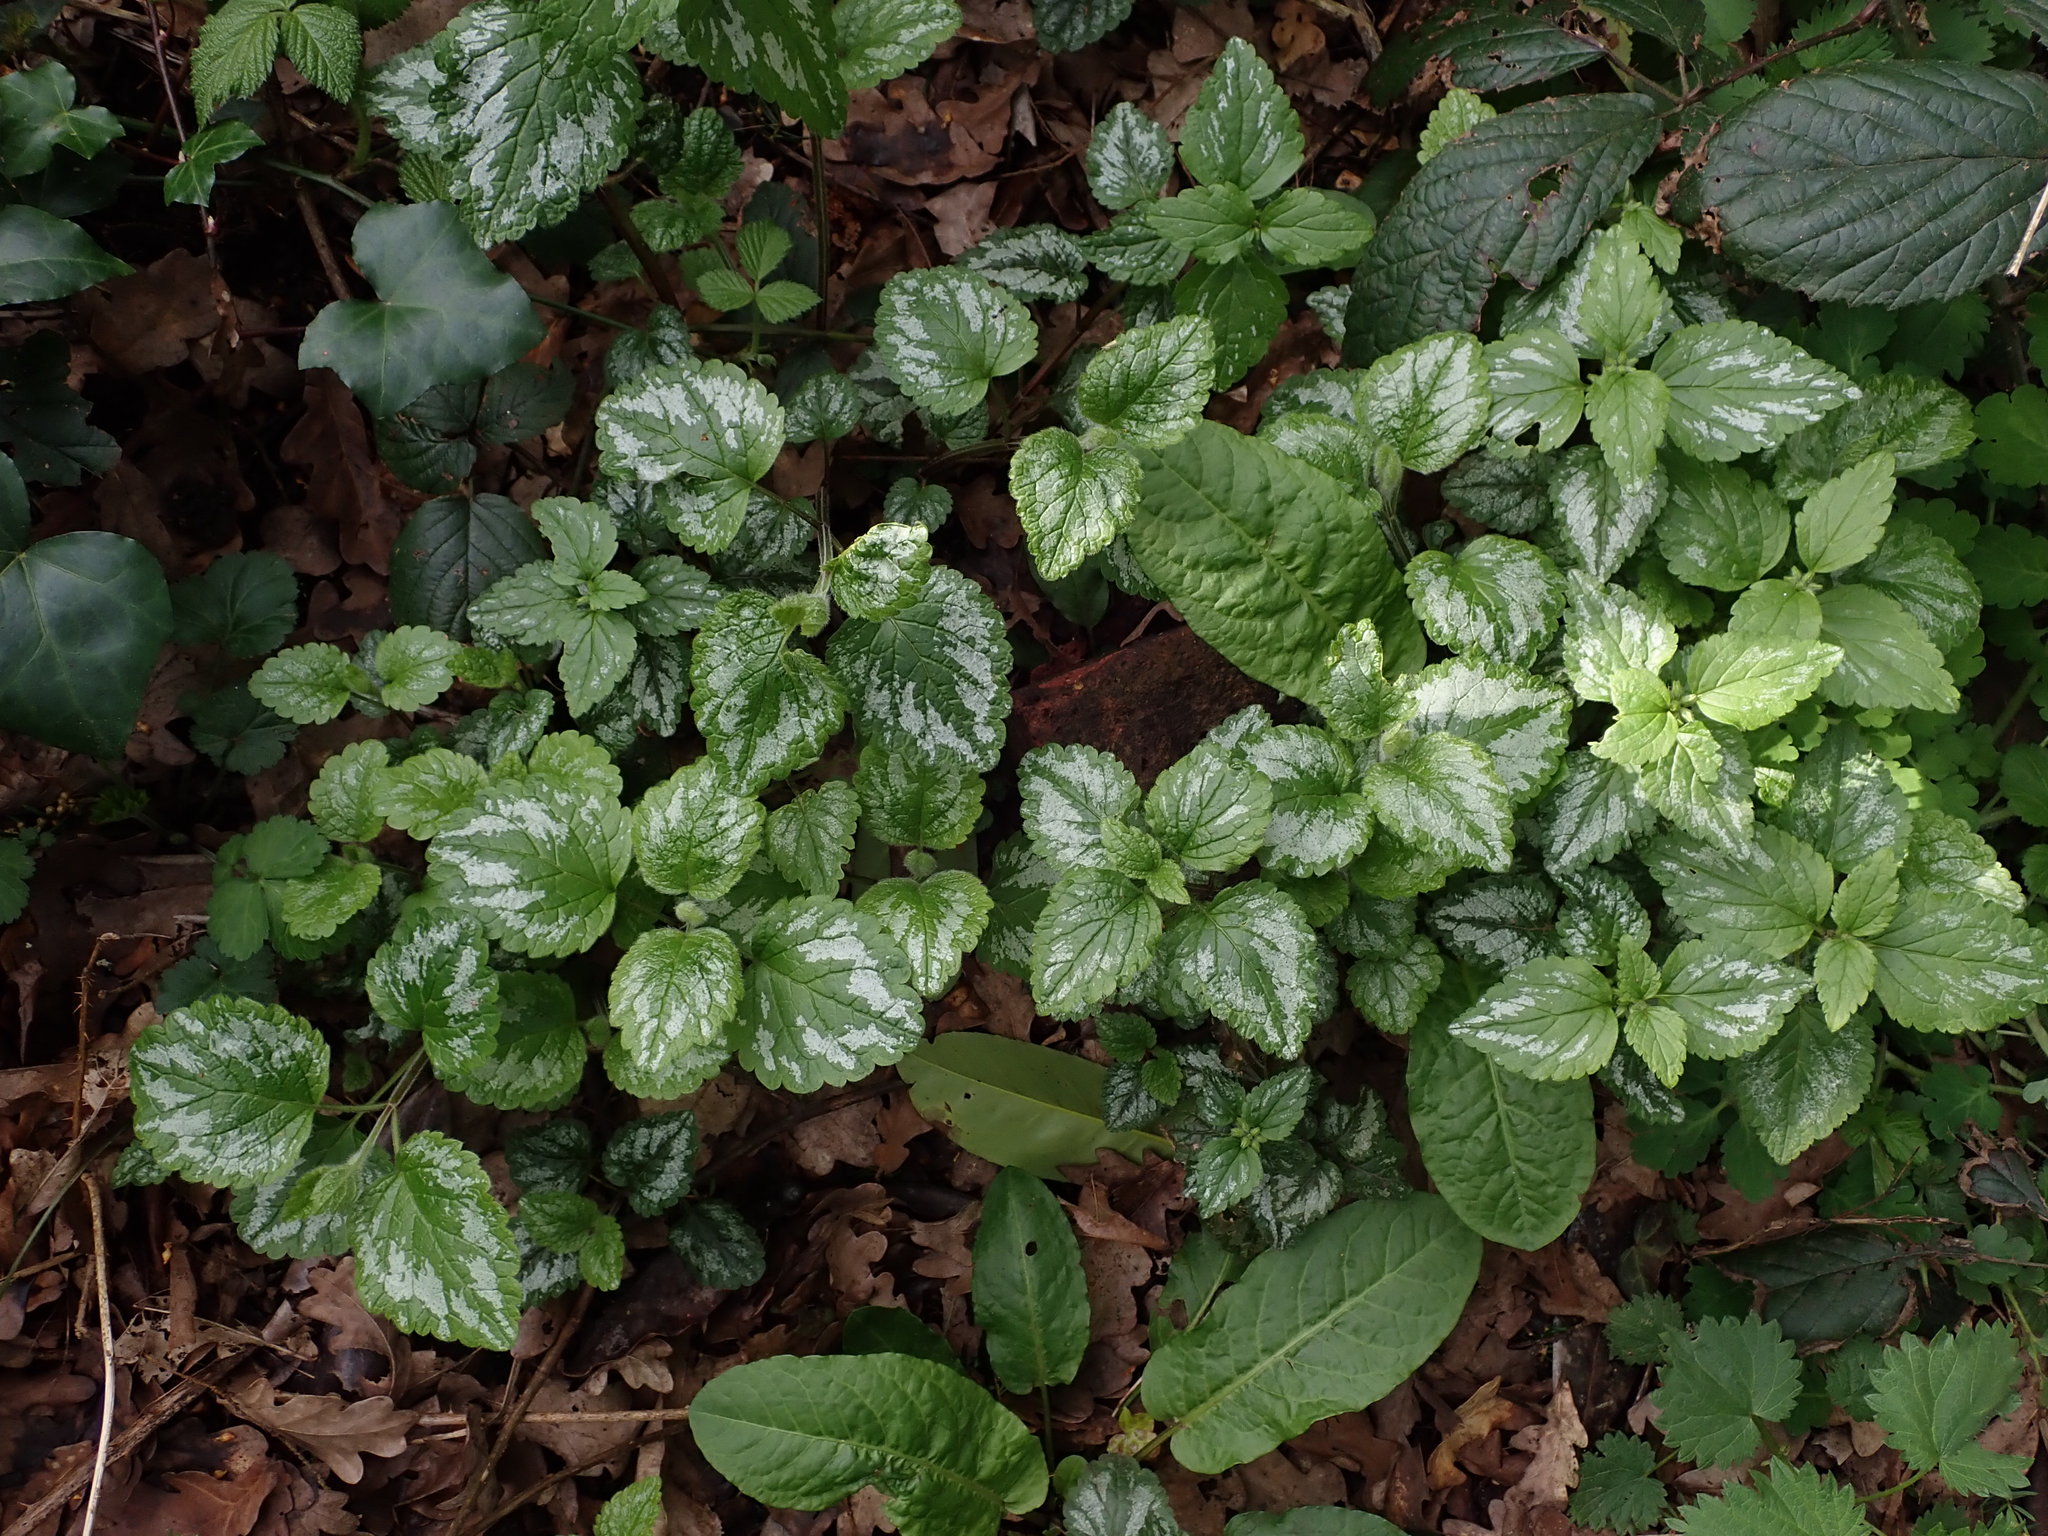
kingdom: Plantae
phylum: Tracheophyta
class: Magnoliopsida
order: Lamiales
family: Lamiaceae
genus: Lamium
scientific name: Lamium galeobdolon
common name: Yellow archangel
